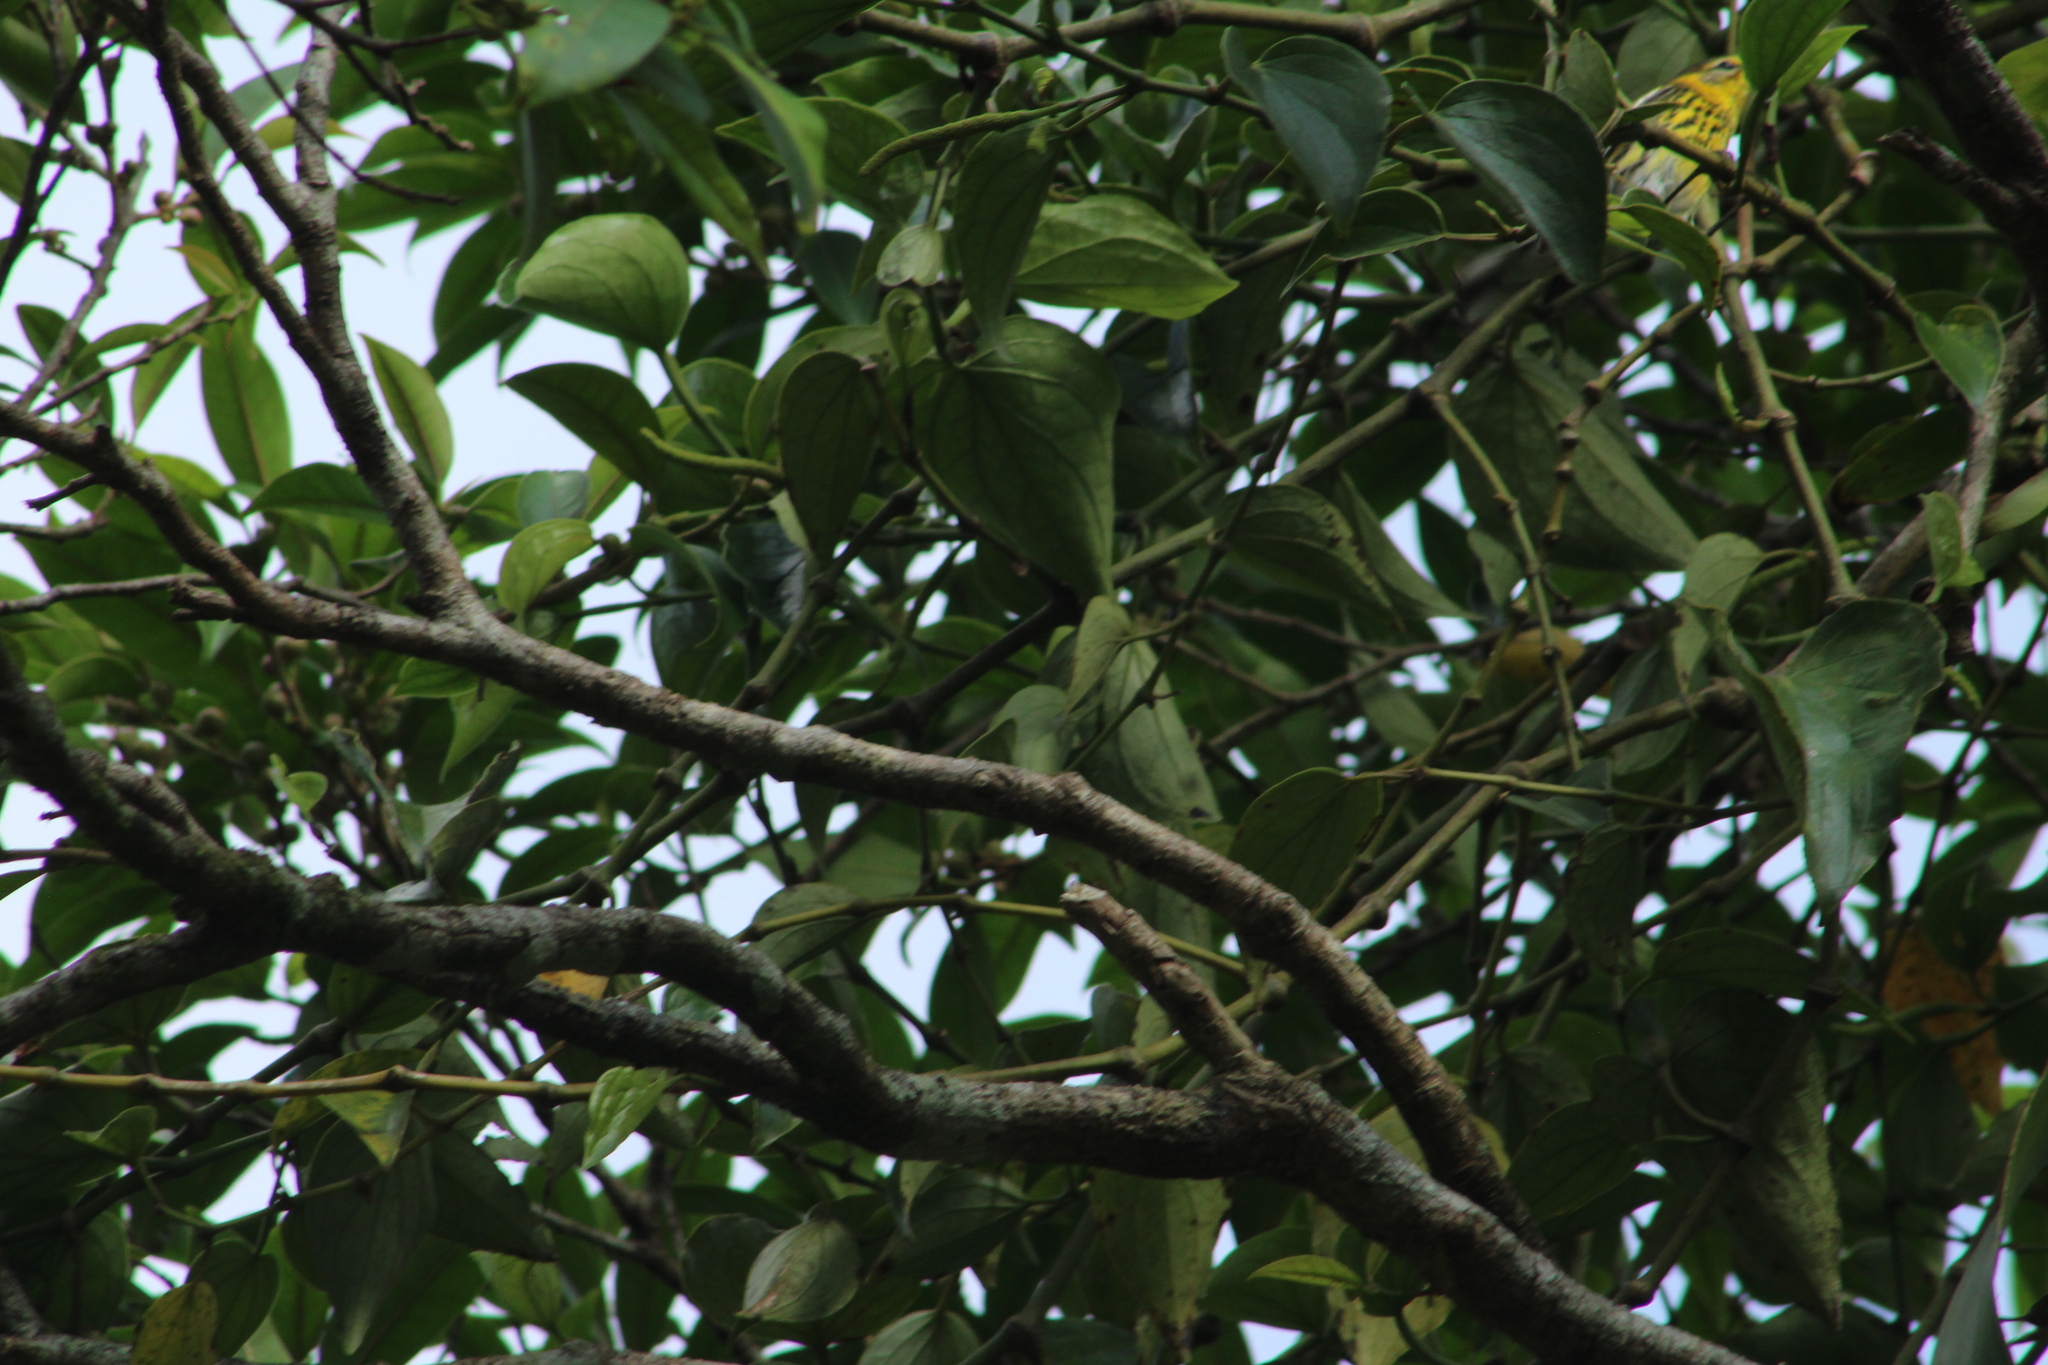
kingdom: Animalia
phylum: Chordata
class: Aves
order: Passeriformes
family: Parulidae
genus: Setophaga
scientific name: Setophaga tigrina
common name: Cape may warbler
